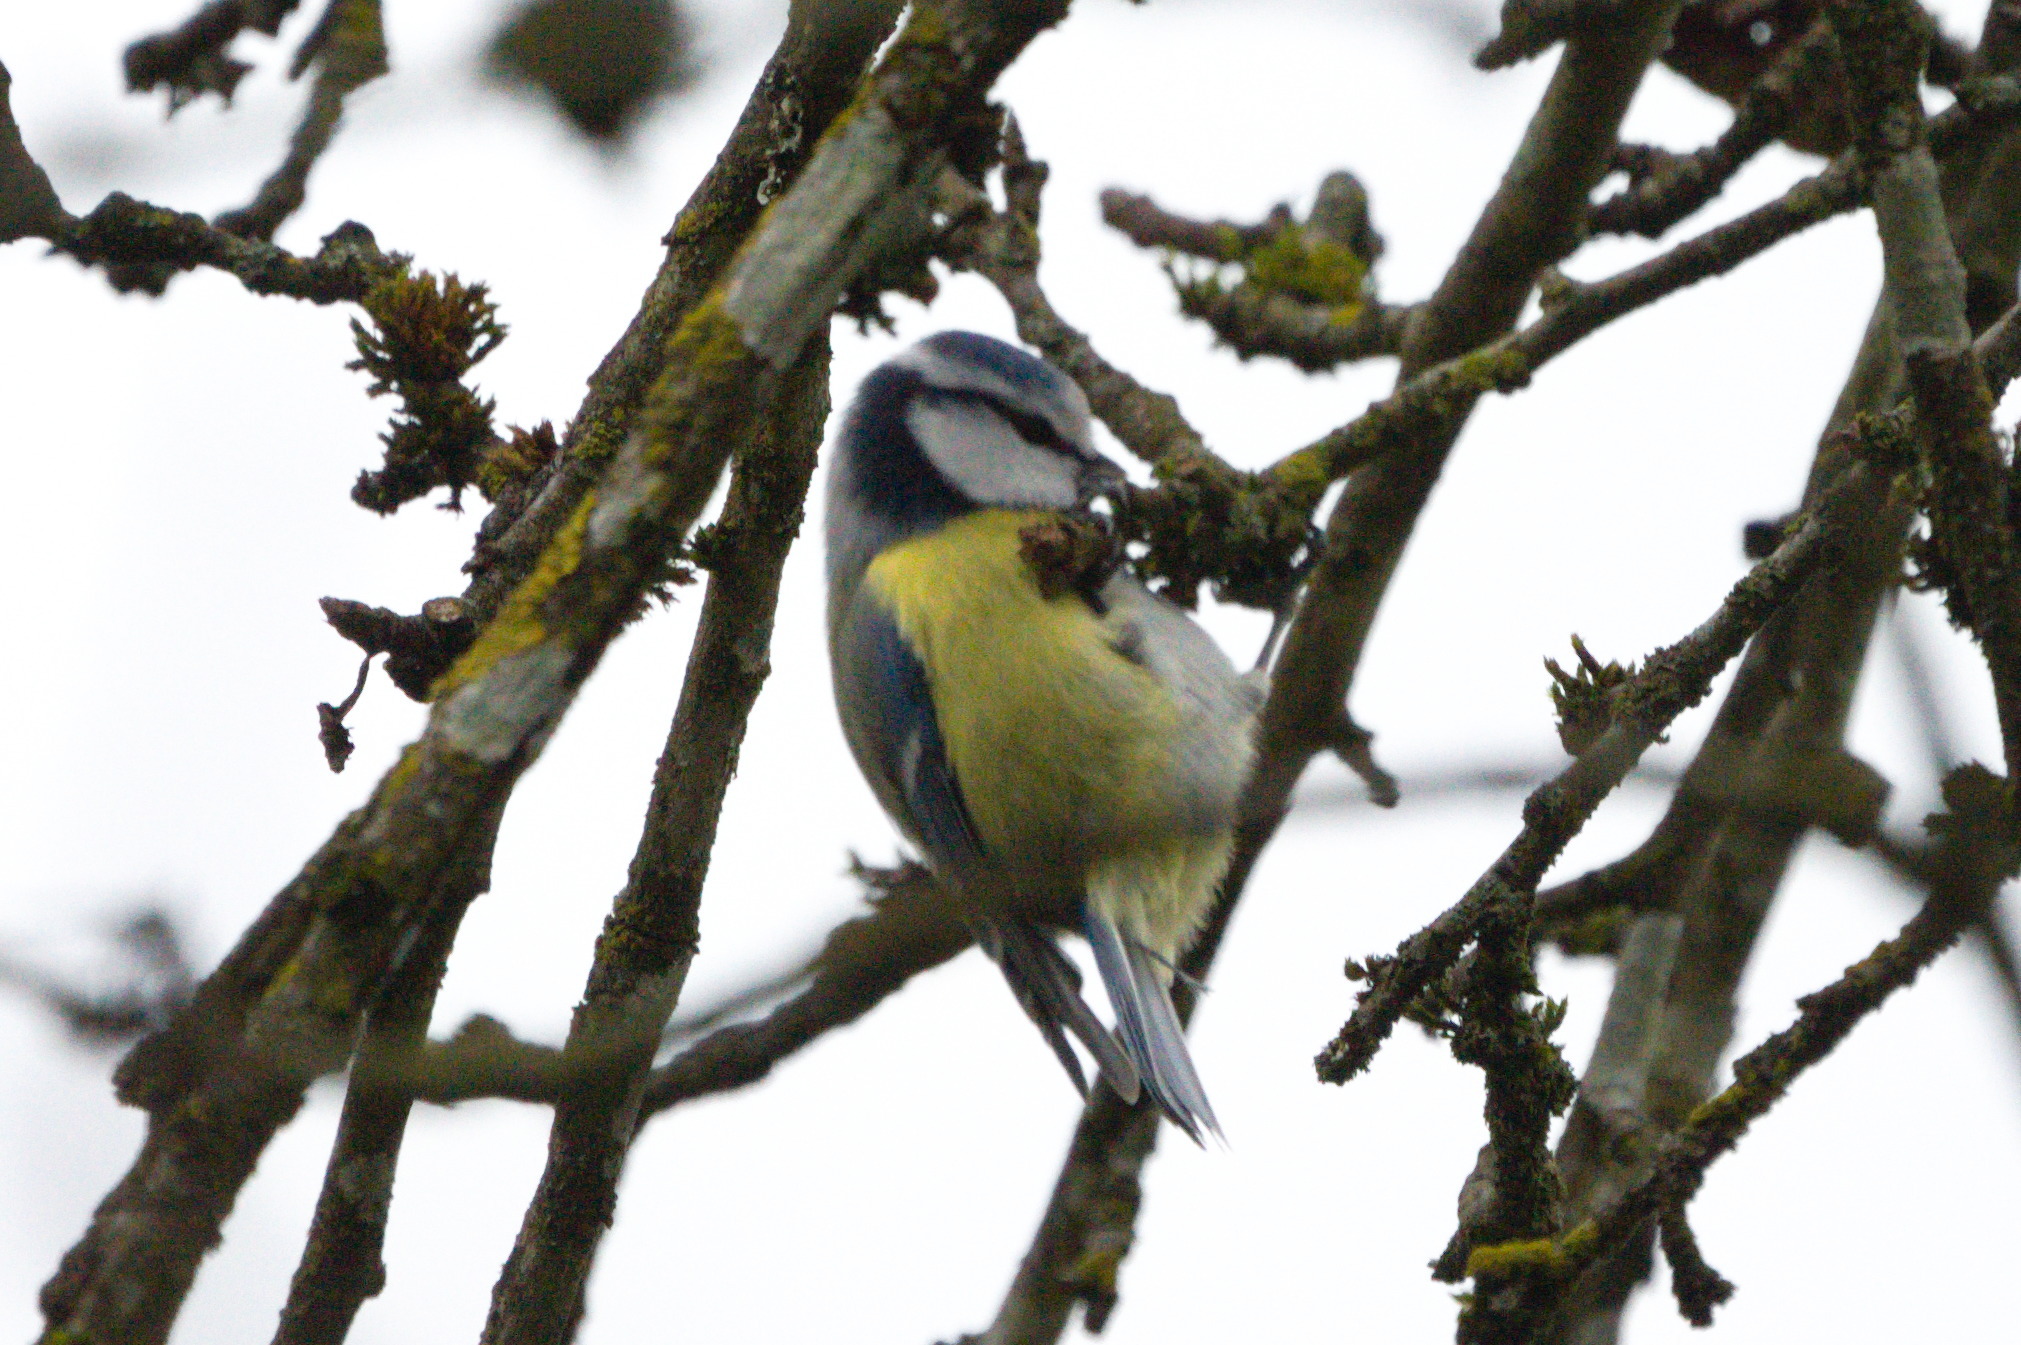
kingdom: Animalia
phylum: Chordata
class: Aves
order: Passeriformes
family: Paridae
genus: Cyanistes
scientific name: Cyanistes caeruleus
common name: Eurasian blue tit
